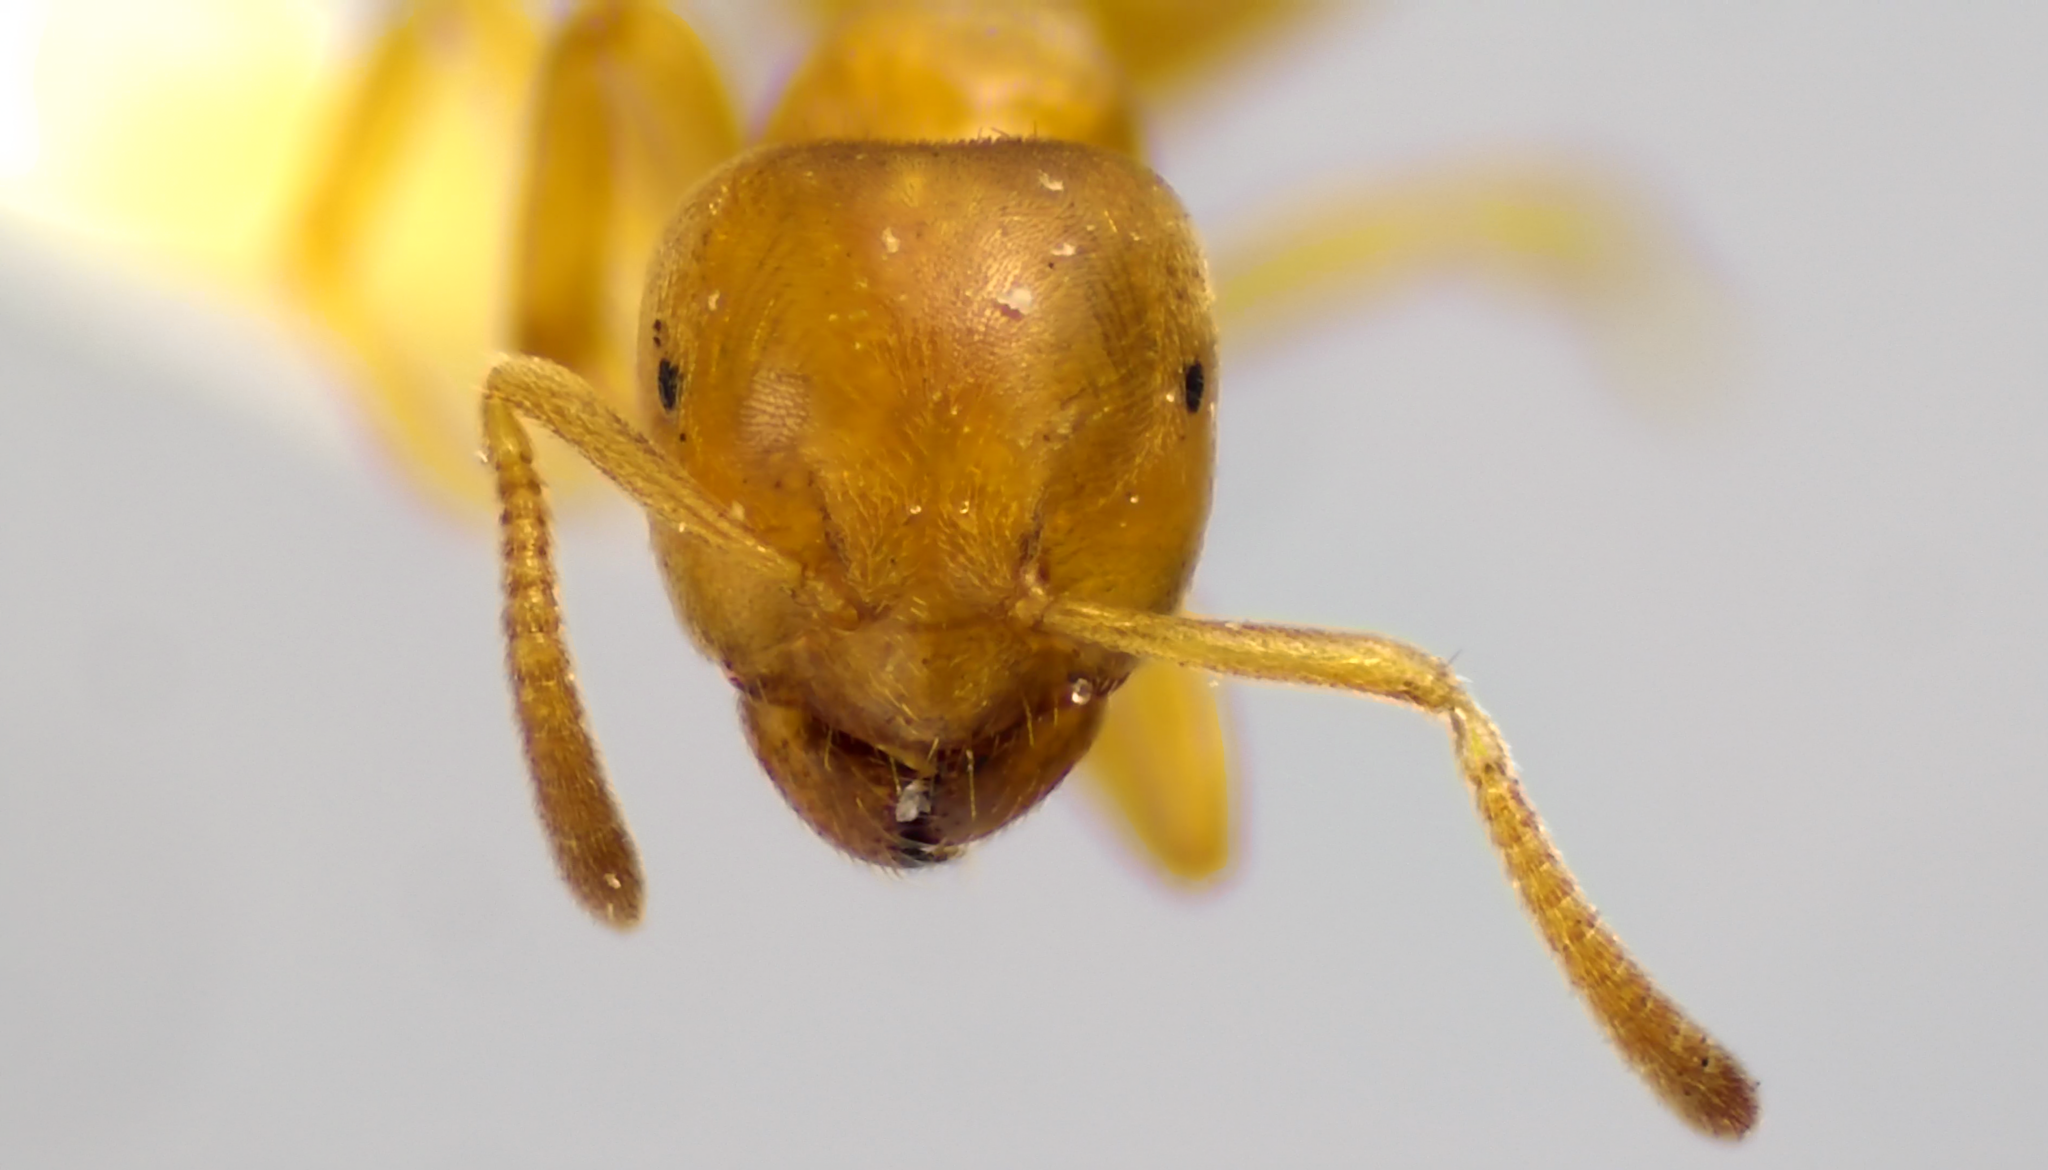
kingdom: Animalia
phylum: Arthropoda
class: Insecta
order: Hymenoptera
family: Formicidae
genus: Lasius
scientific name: Lasius
